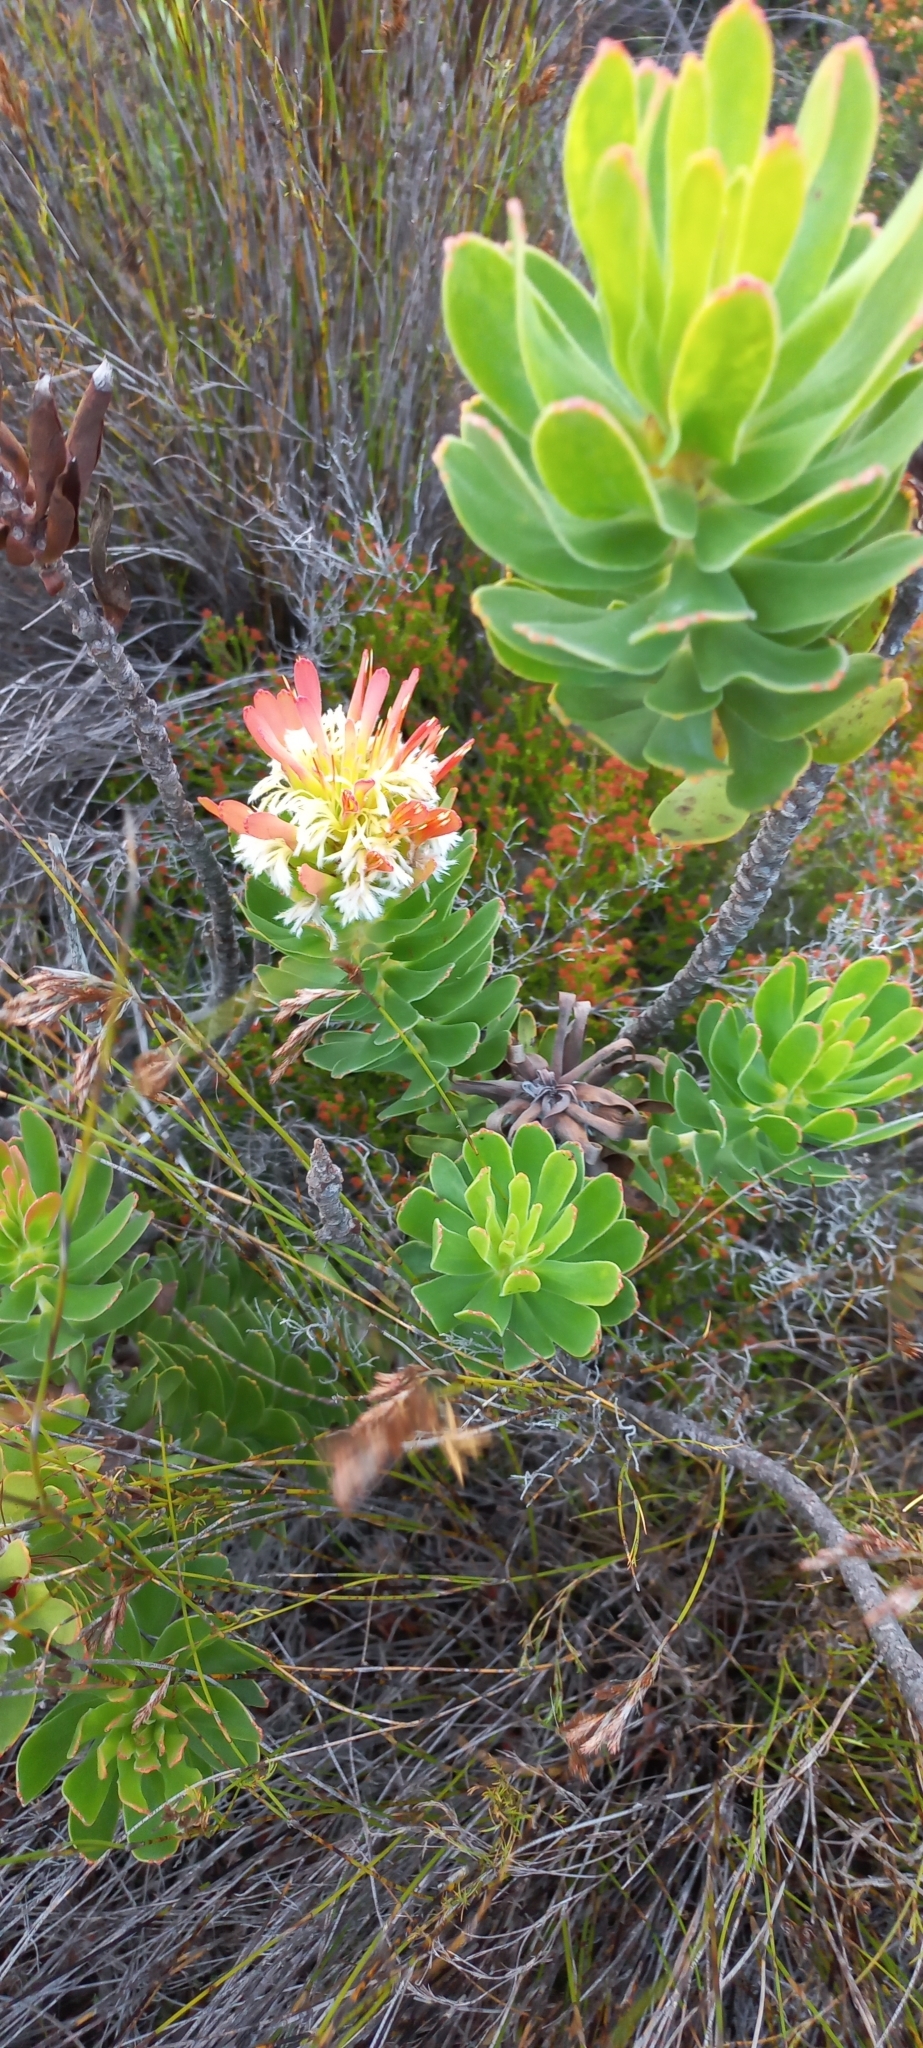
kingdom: Plantae
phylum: Tracheophyta
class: Magnoliopsida
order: Proteales
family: Proteaceae
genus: Mimetes
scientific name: Mimetes cucullatus
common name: Common pagoda
